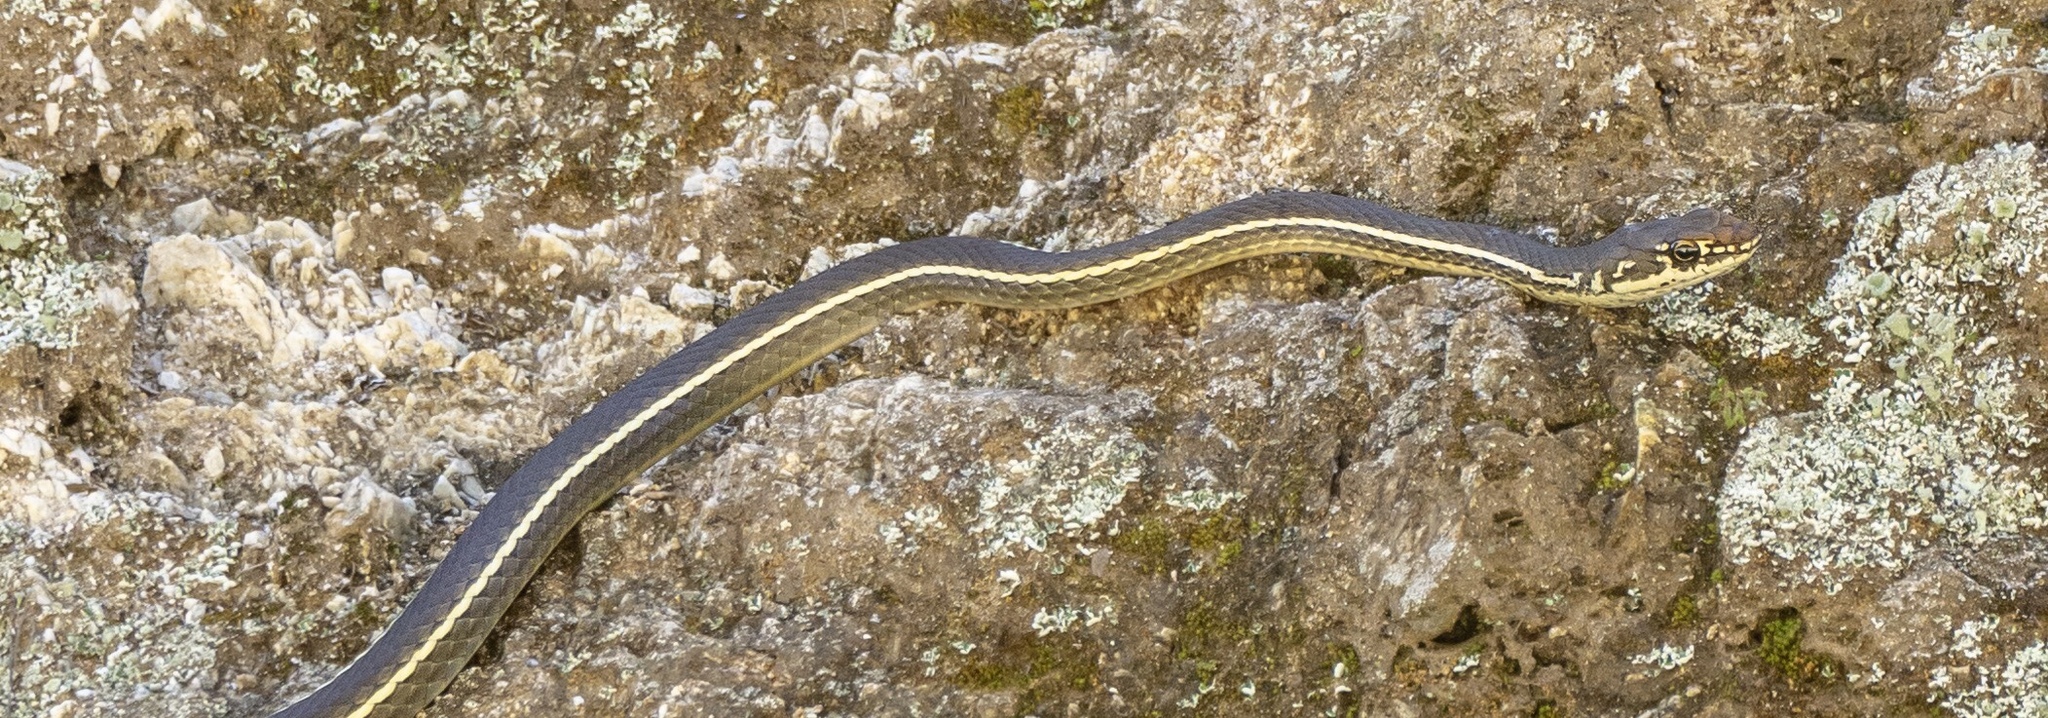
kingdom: Animalia
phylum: Chordata
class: Squamata
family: Colubridae
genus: Masticophis
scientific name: Masticophis lateralis
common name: Striped racer
